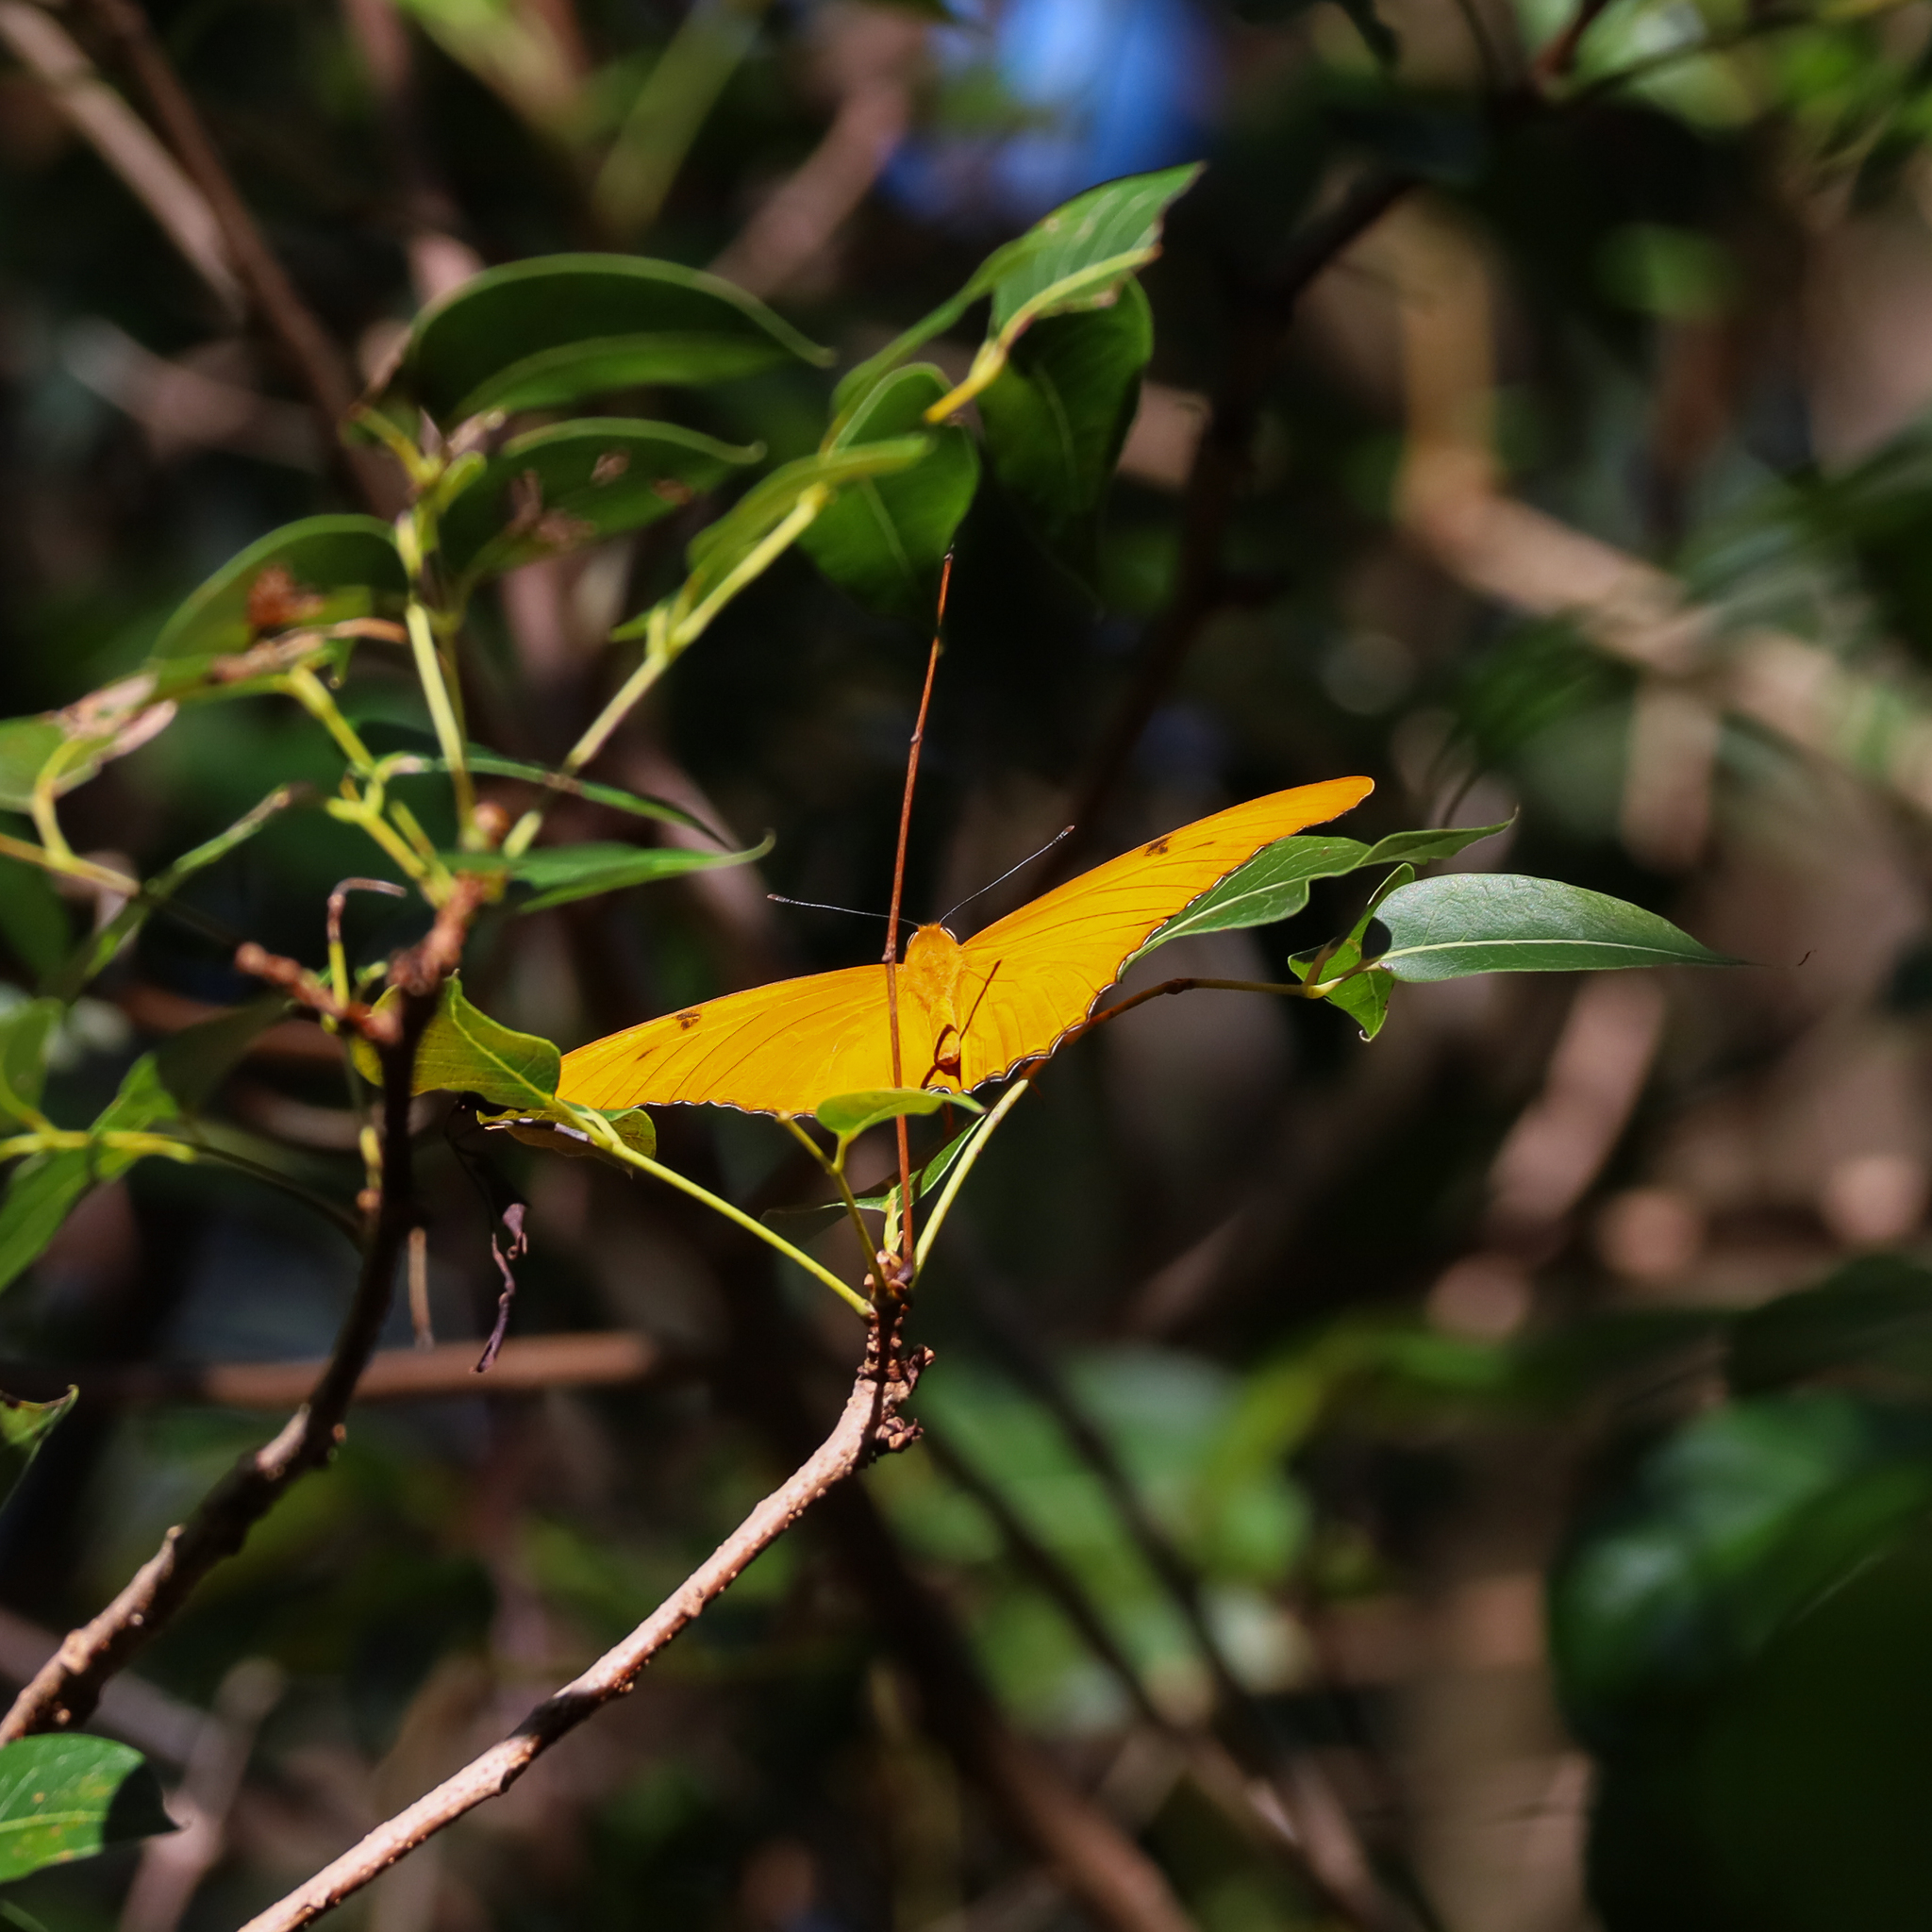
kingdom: Animalia
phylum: Arthropoda
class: Insecta
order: Lepidoptera
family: Nymphalidae
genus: Dryas
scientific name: Dryas iulia
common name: Flambeau
